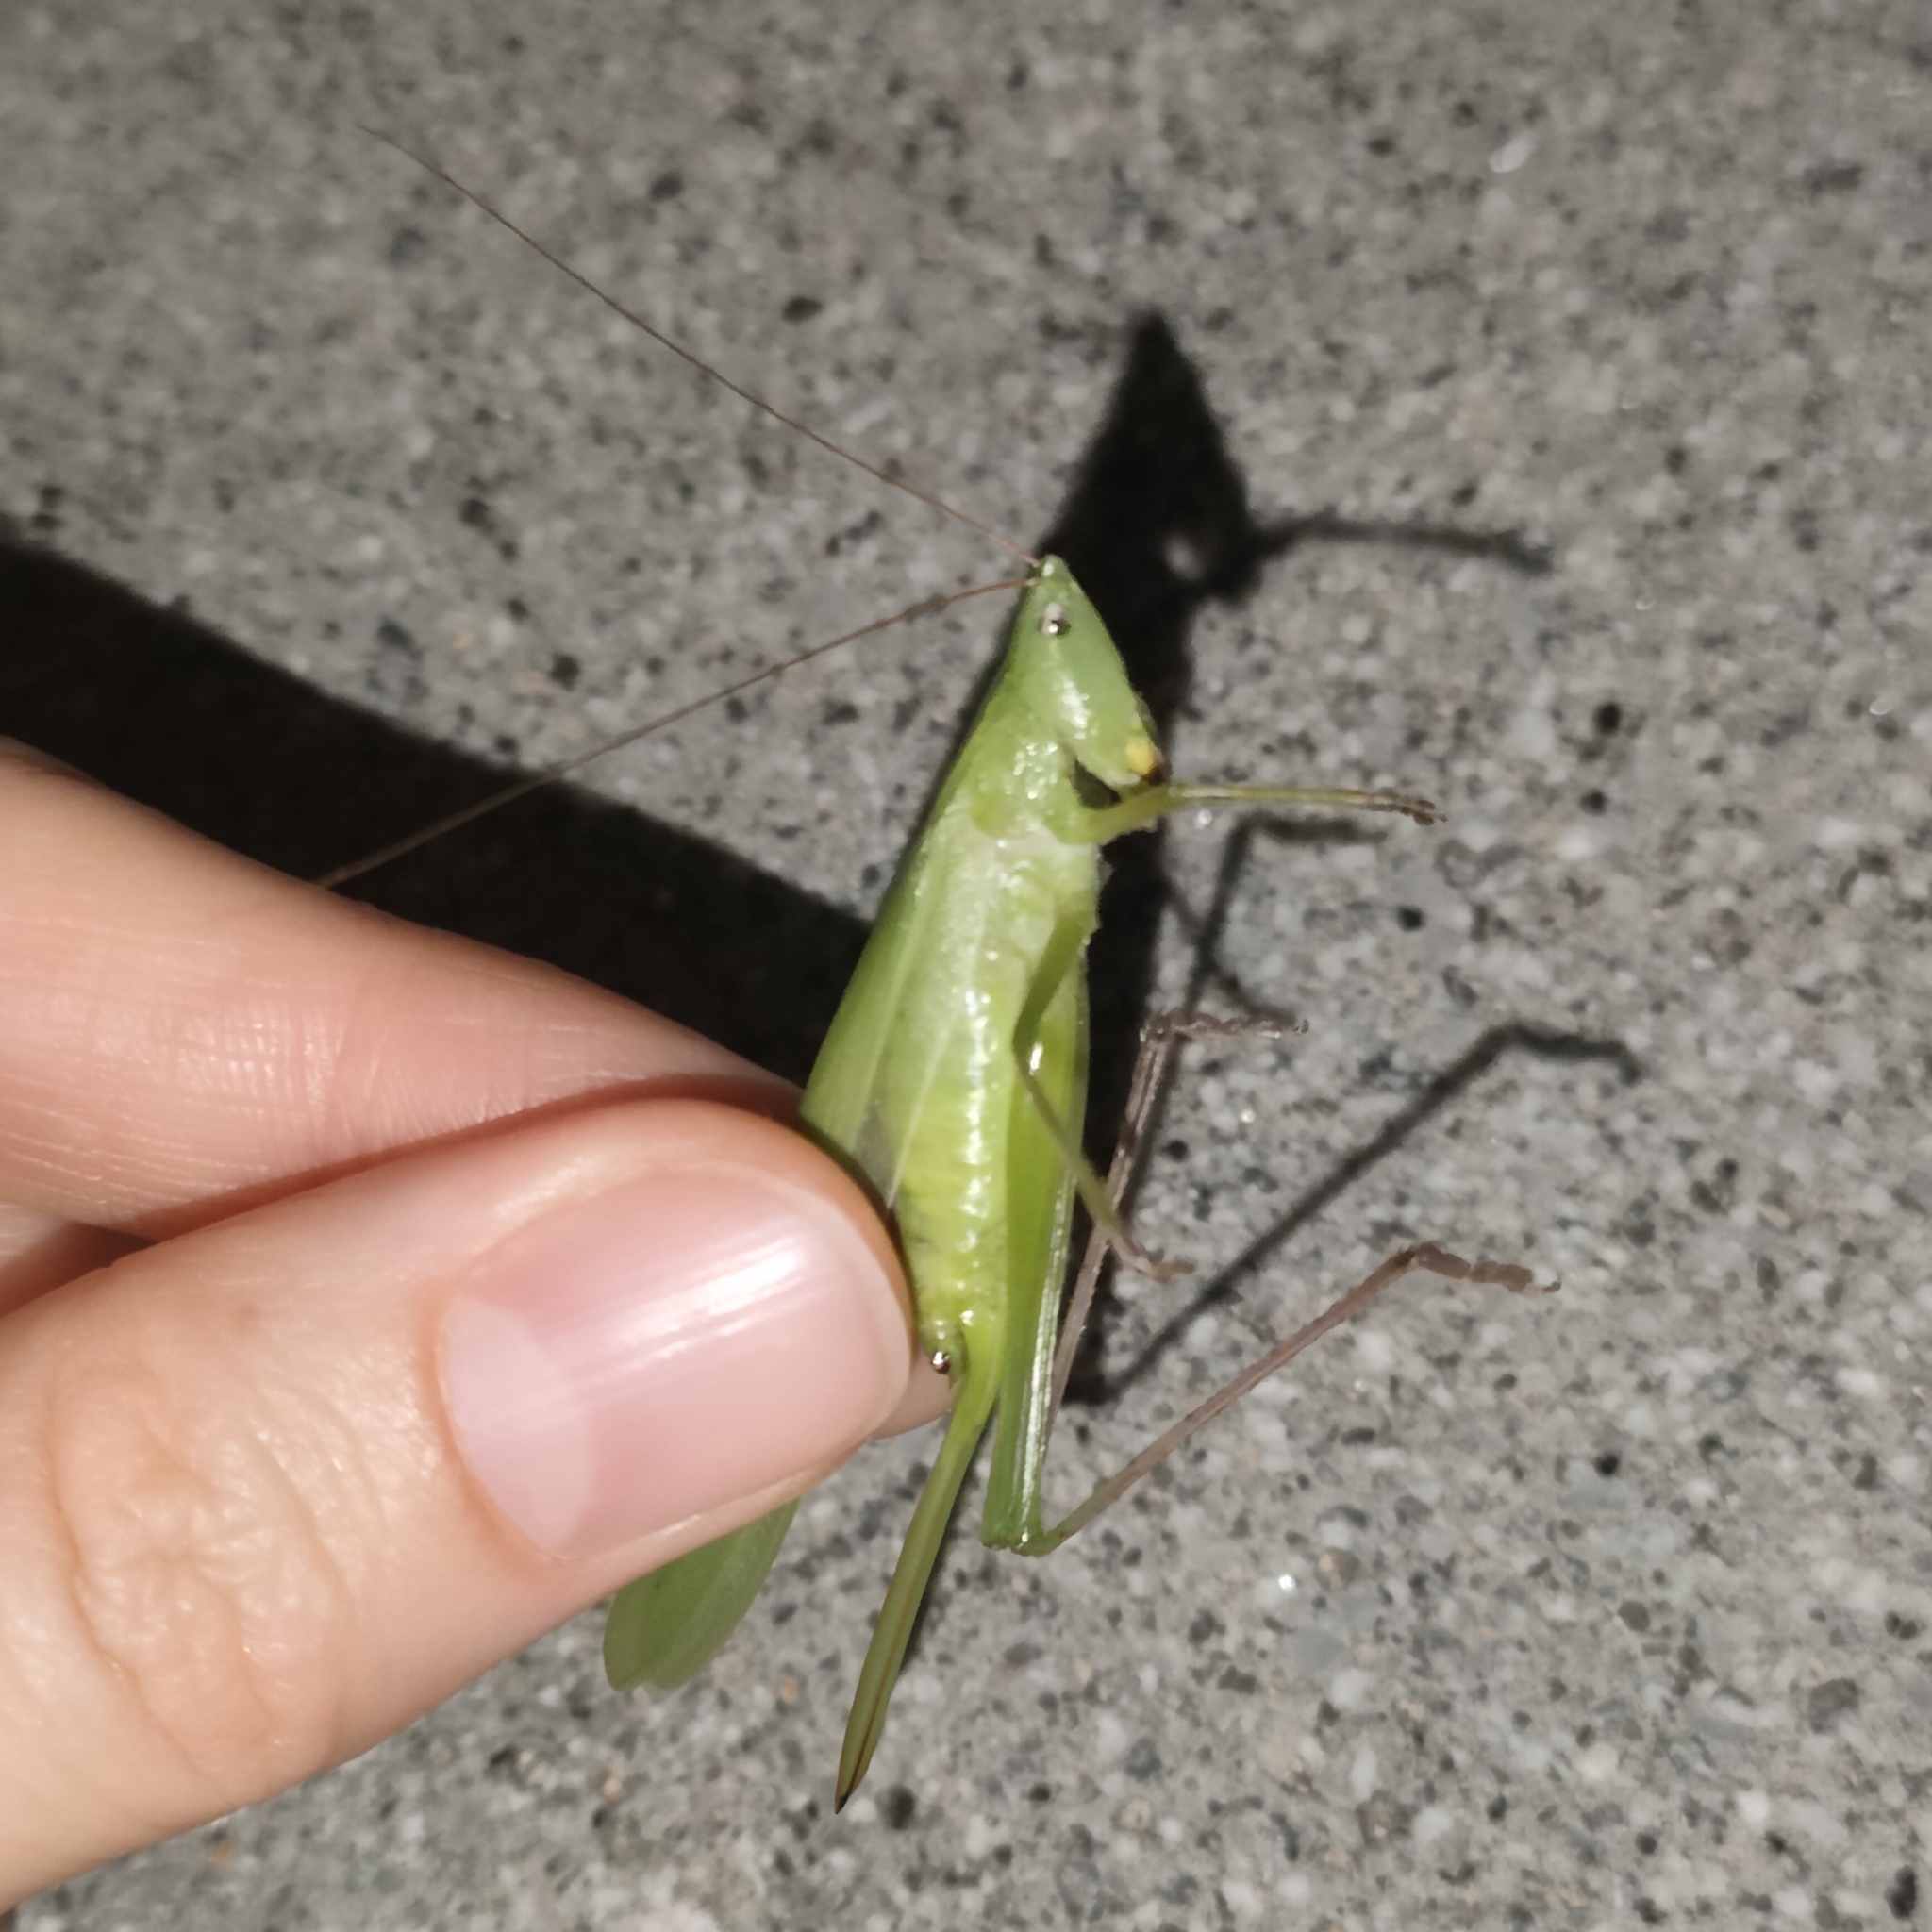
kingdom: Animalia
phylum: Arthropoda
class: Insecta
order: Orthoptera
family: Tettigoniidae
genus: Ruspolia
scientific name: Ruspolia nitidula
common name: Large conehead
